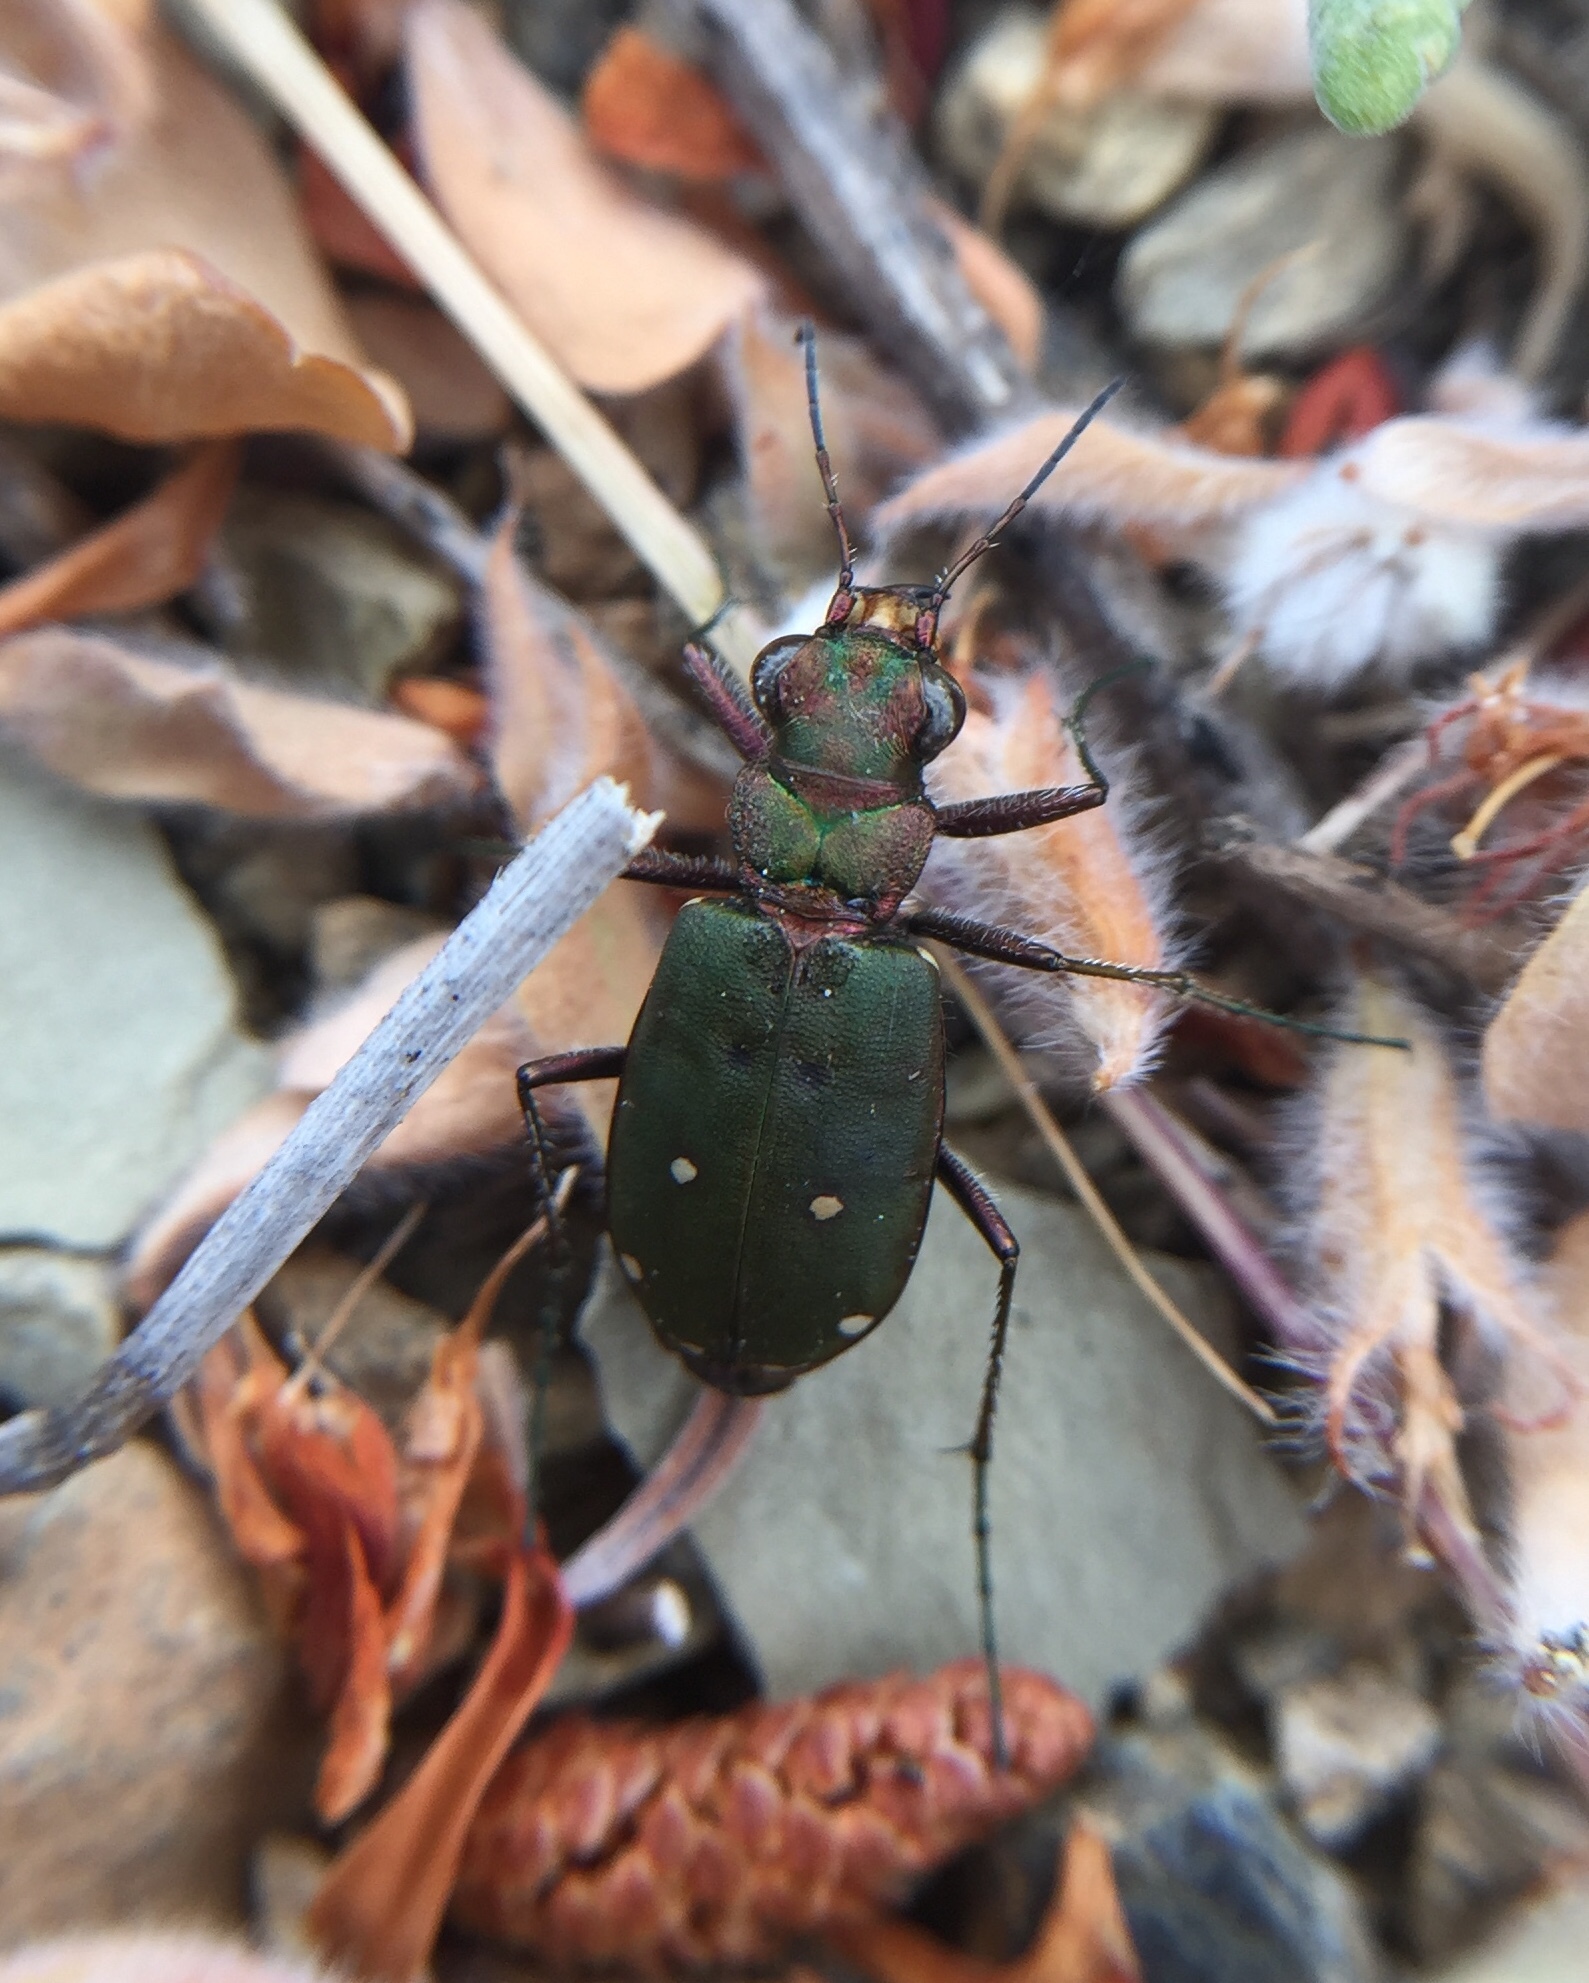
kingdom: Animalia
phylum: Arthropoda
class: Insecta
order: Coleoptera
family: Carabidae
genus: Cicindela
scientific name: Cicindela campestris
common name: Common tiger beetle
